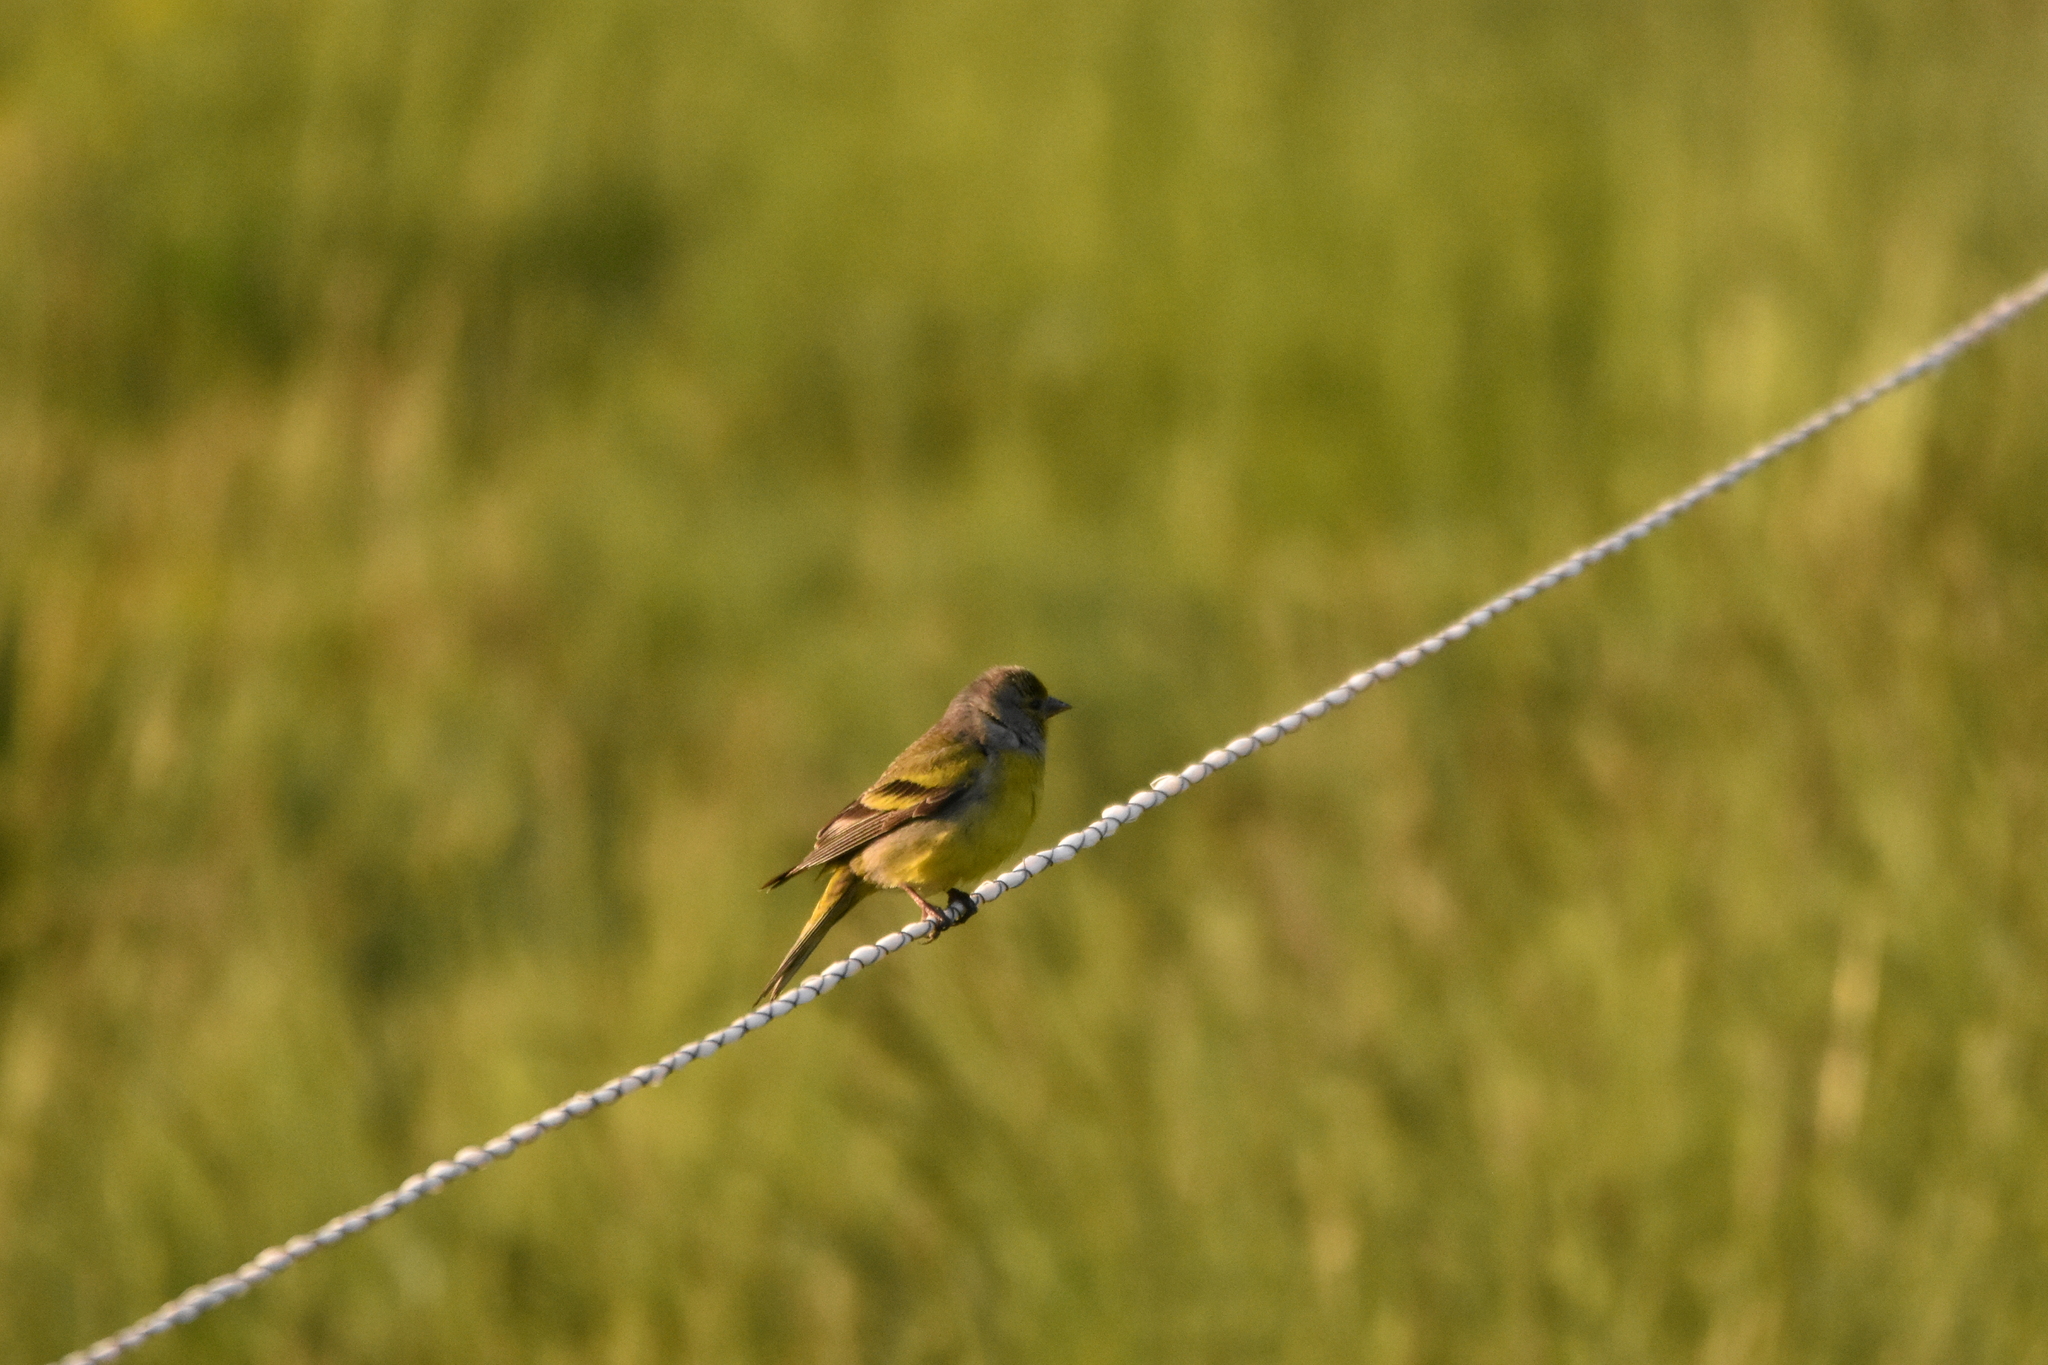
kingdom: Animalia
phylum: Chordata
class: Aves
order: Passeriformes
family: Fringillidae
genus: Carduelis
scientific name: Carduelis citrinella
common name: Citril finch
